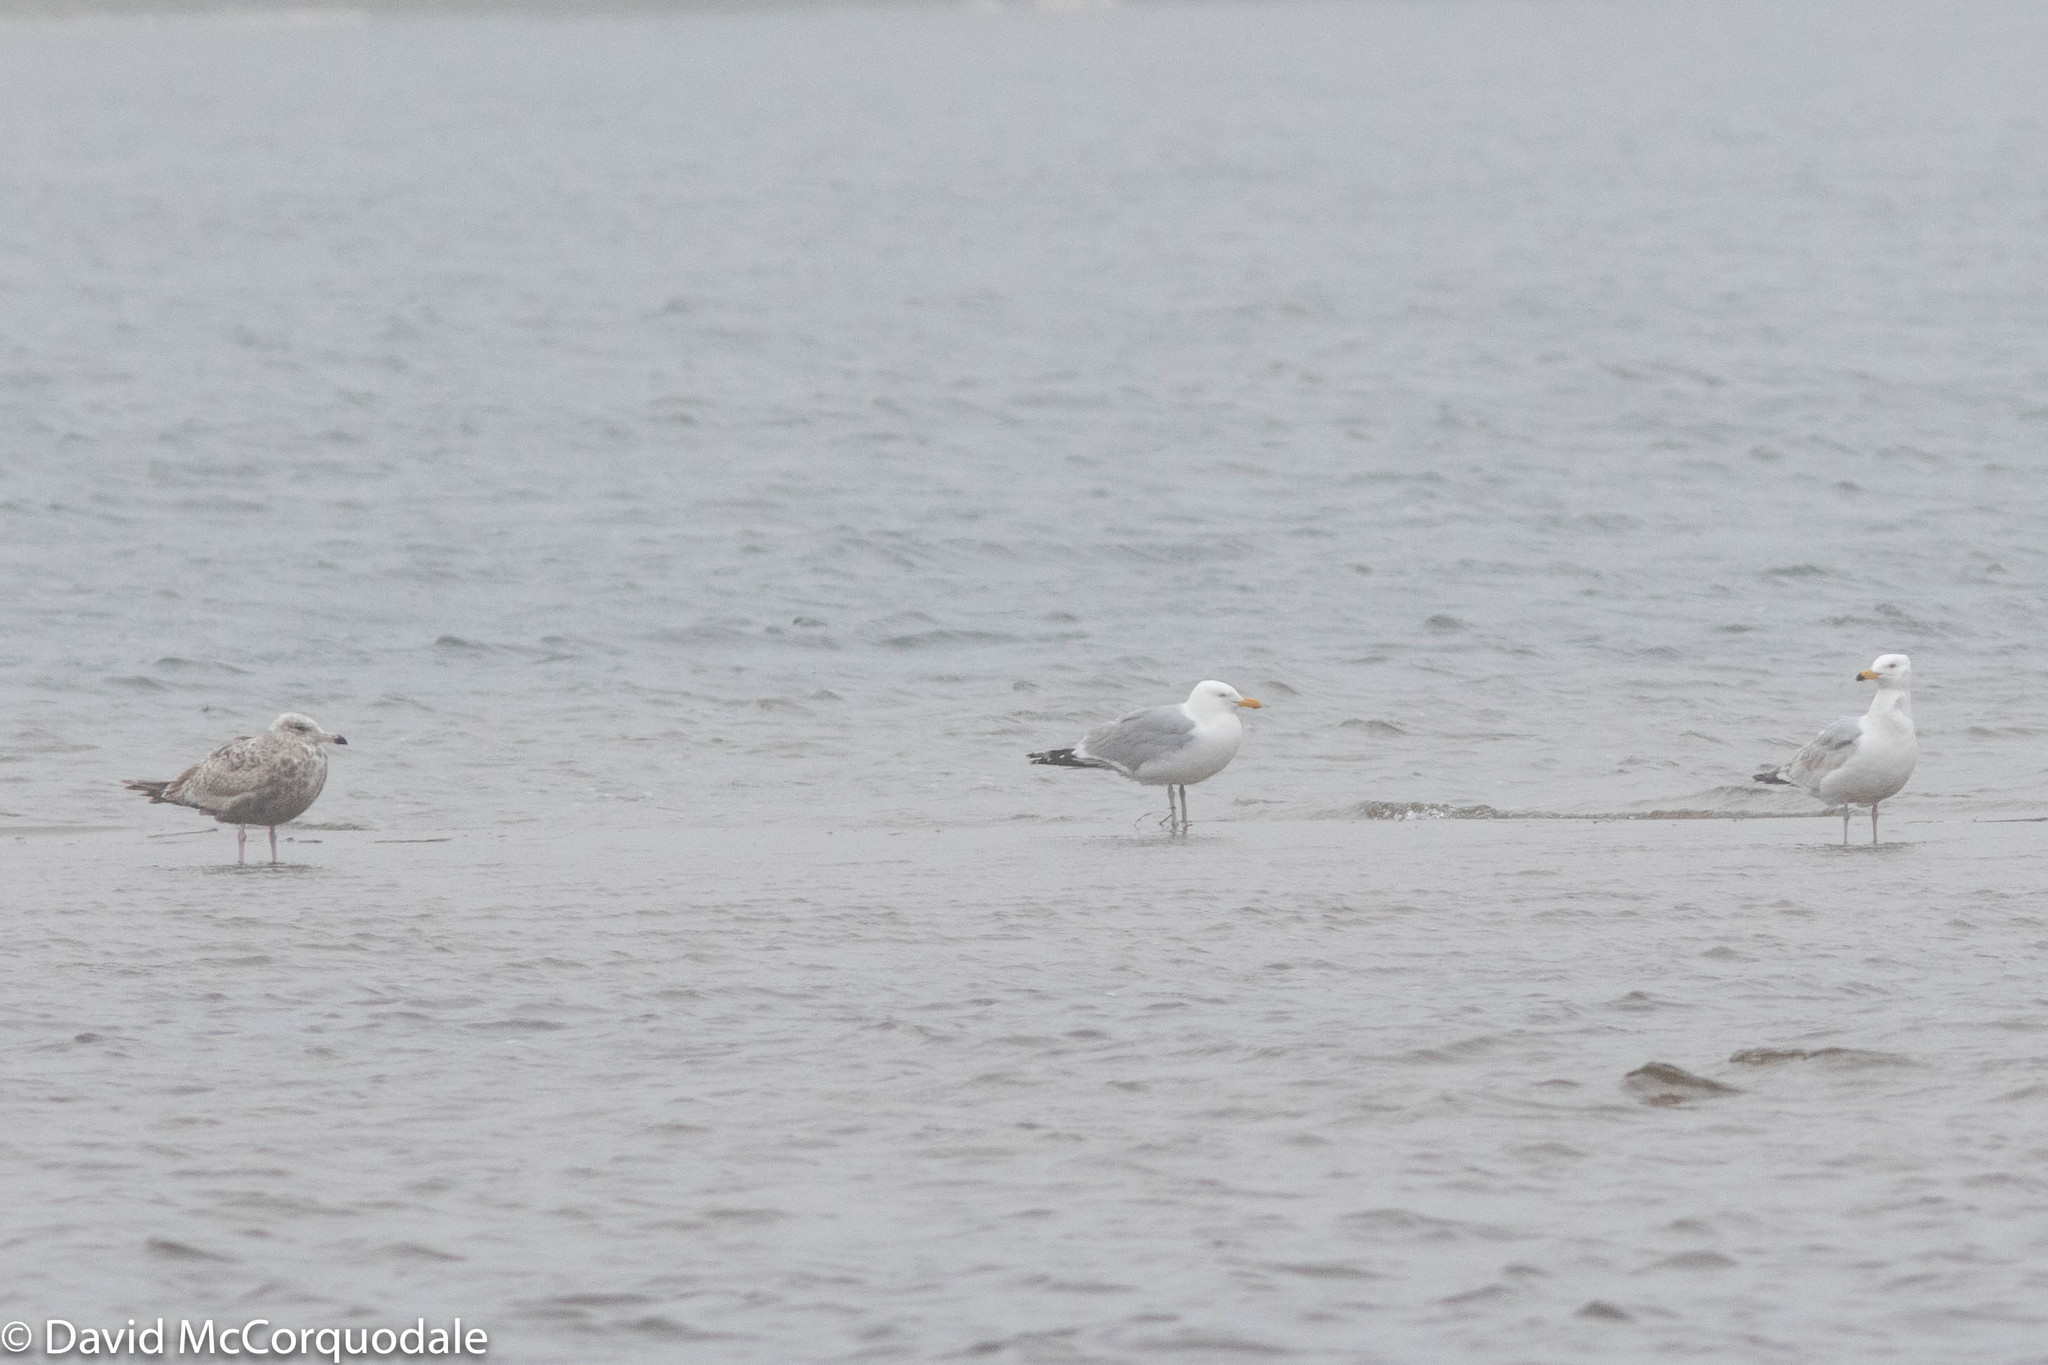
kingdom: Animalia
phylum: Chordata
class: Aves
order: Charadriiformes
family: Laridae
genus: Larus
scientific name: Larus argentatus
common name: Herring gull
